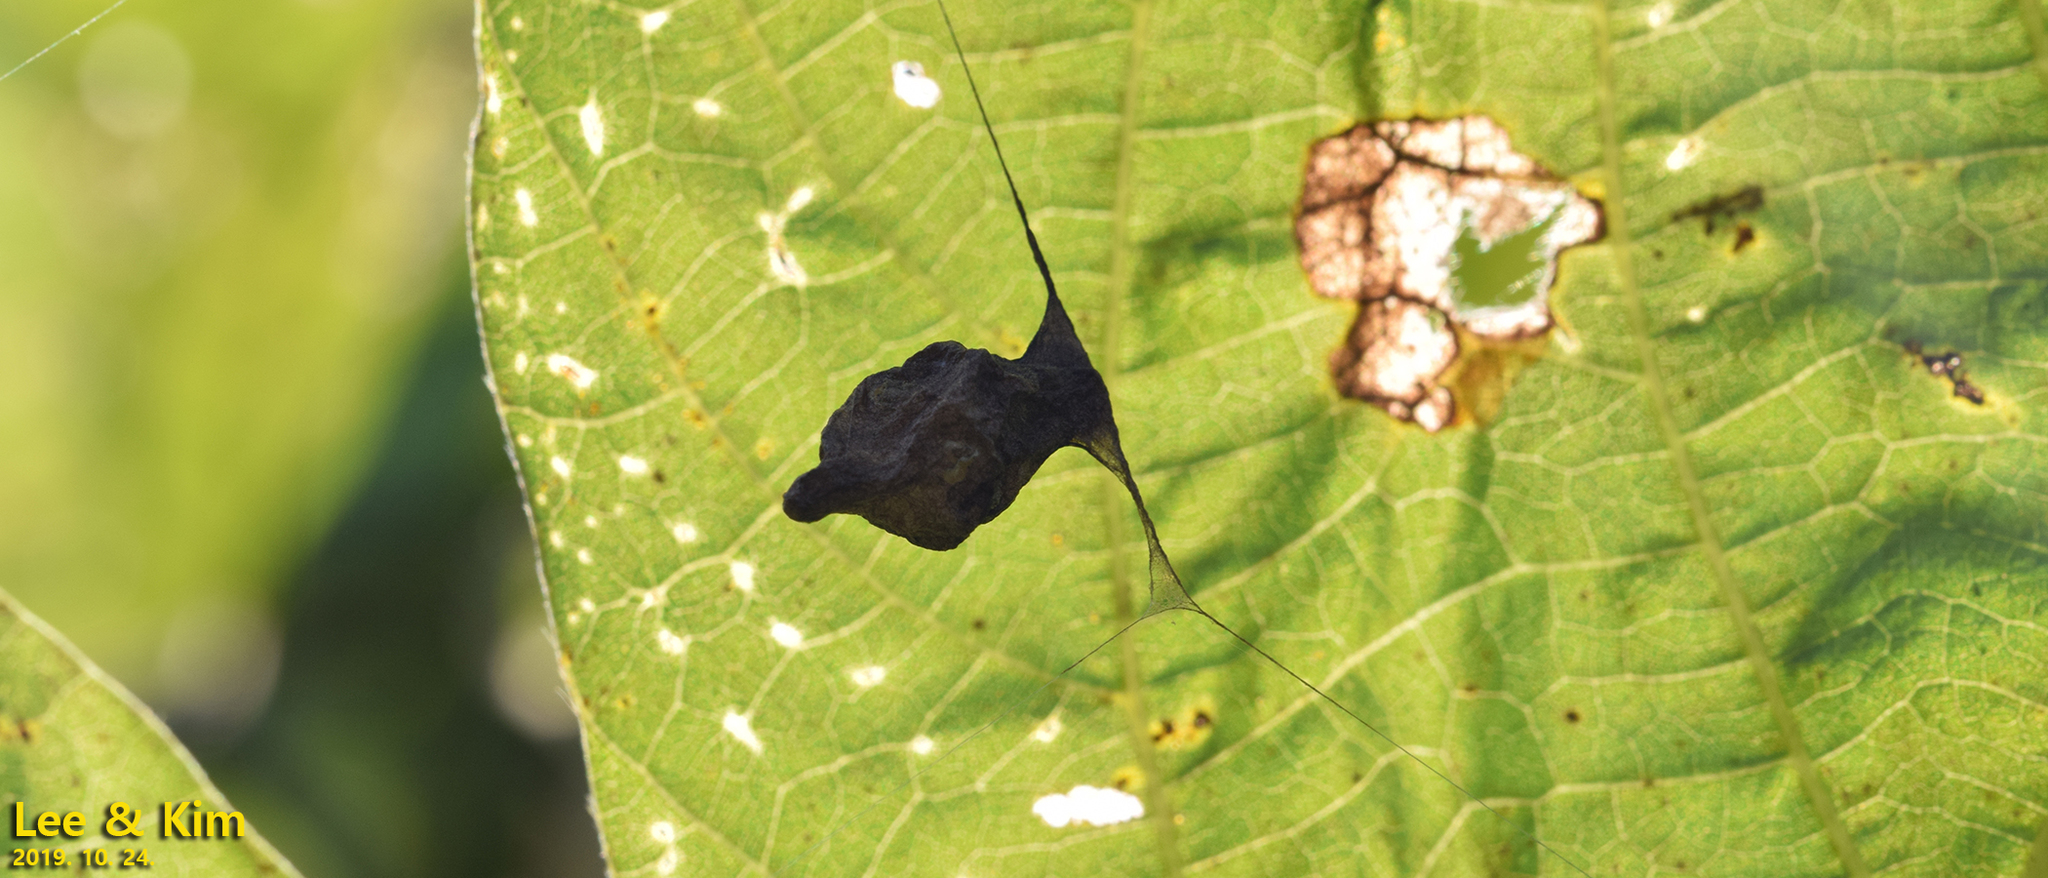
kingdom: Animalia
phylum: Arthropoda
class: Arachnida
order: Araneae
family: Araneidae
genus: Cyrtarachne
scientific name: Cyrtarachne inaequalis
